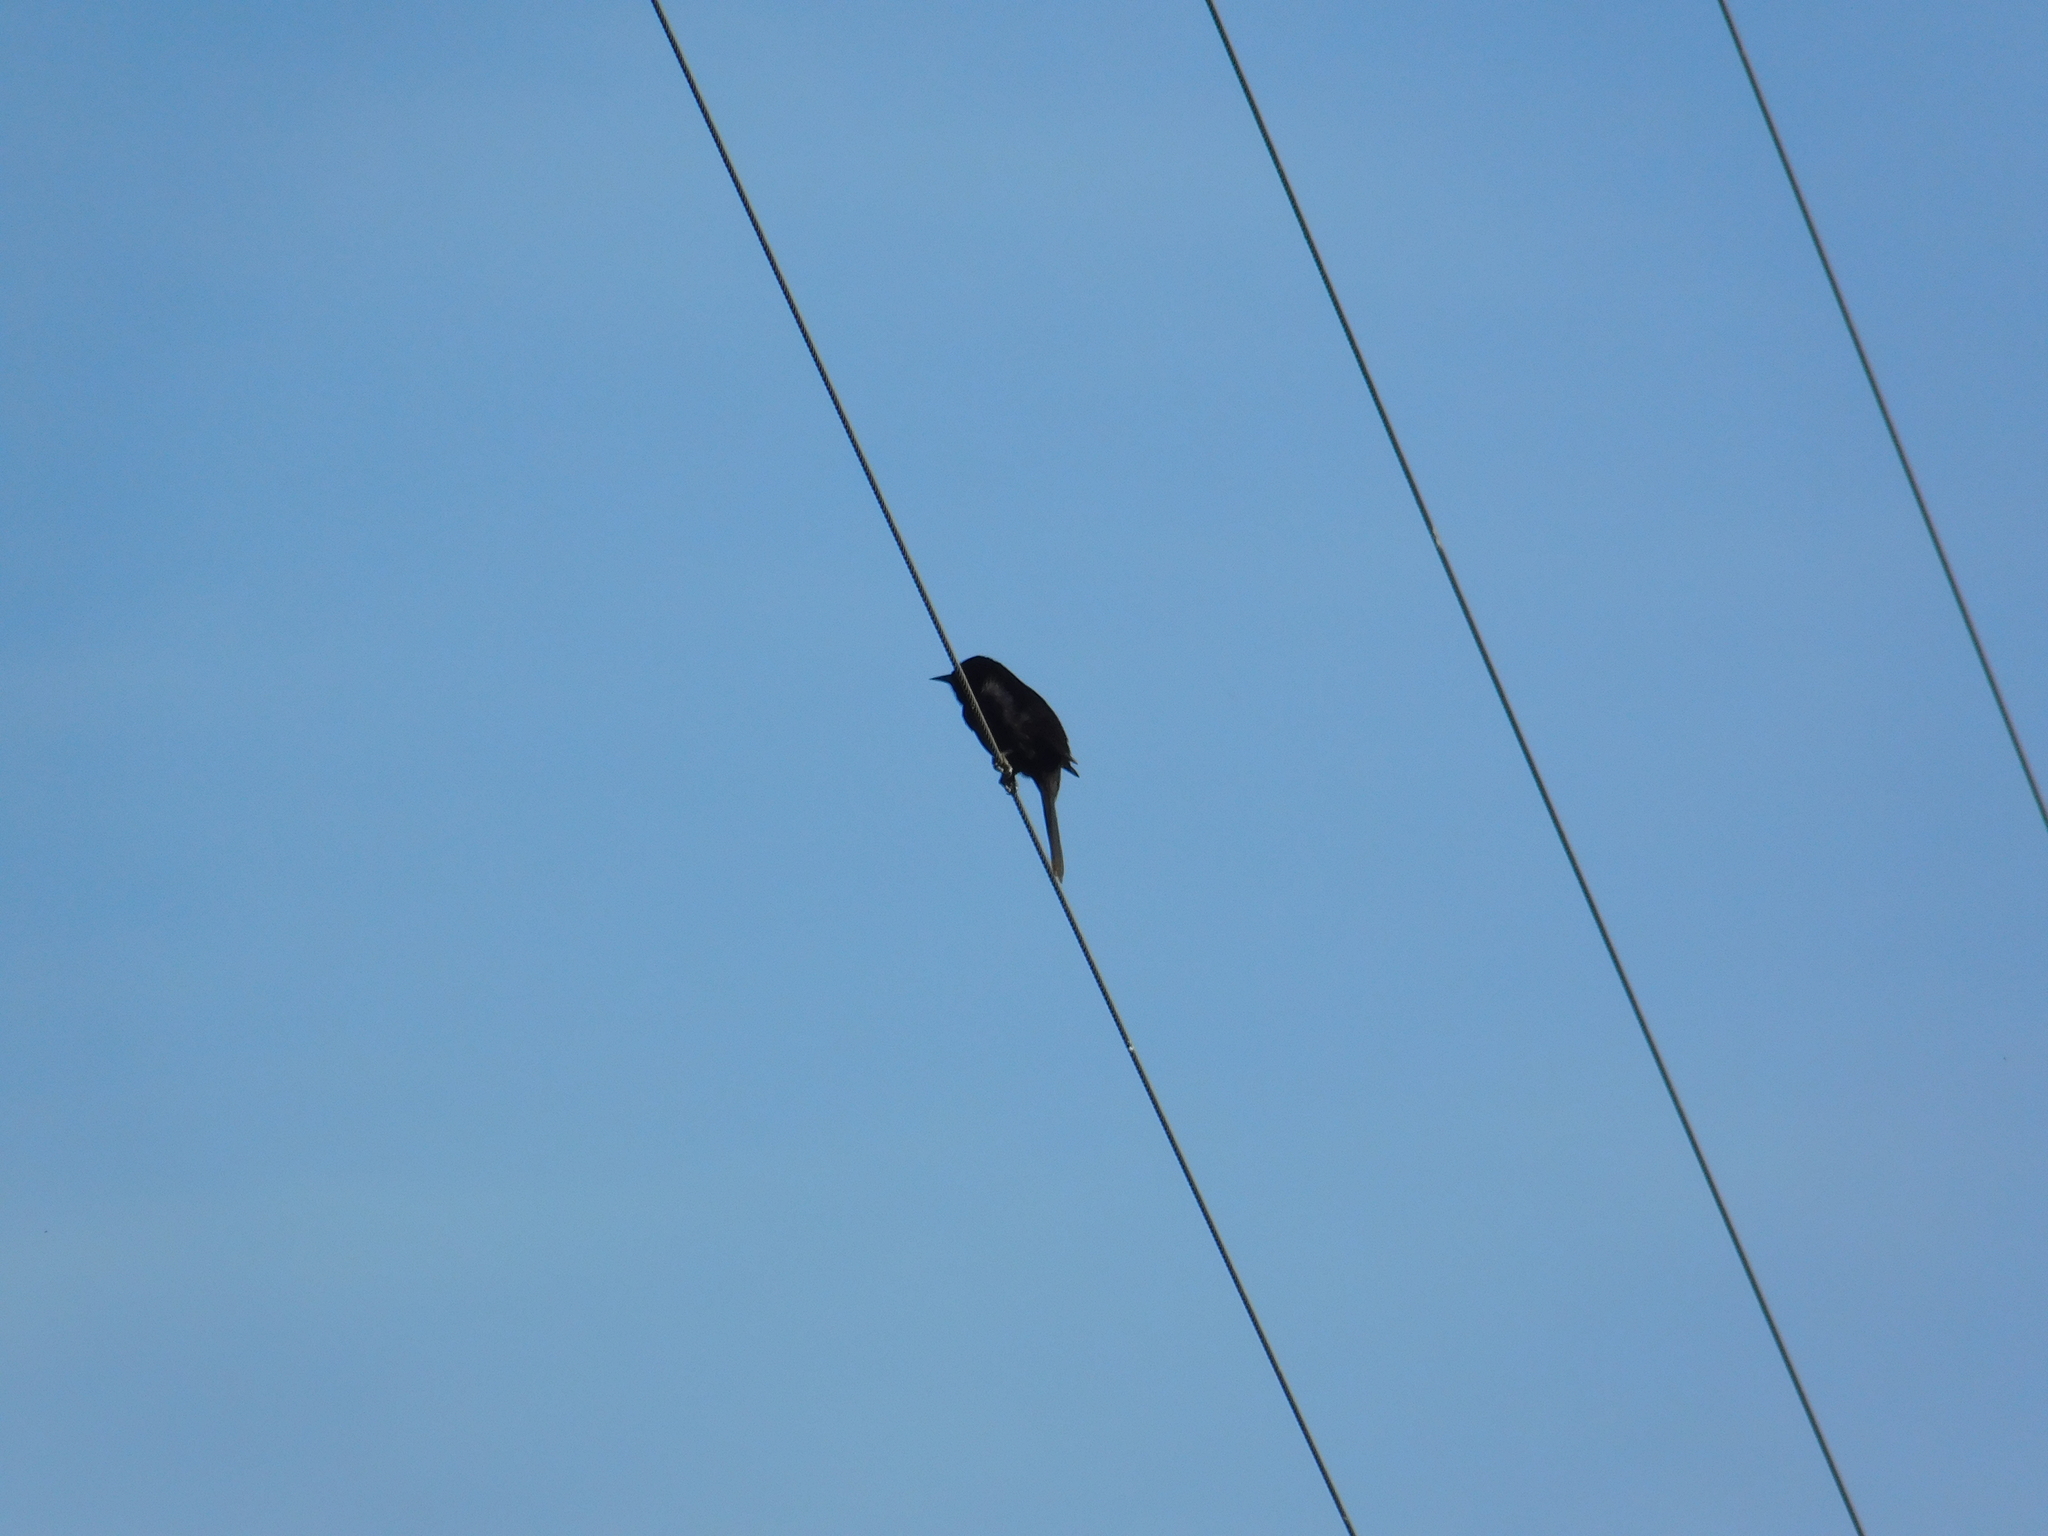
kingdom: Animalia
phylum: Chordata
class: Aves
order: Passeriformes
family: Icteridae
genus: Icterus
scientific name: Icterus cayanensis
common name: Epaulet oriole
